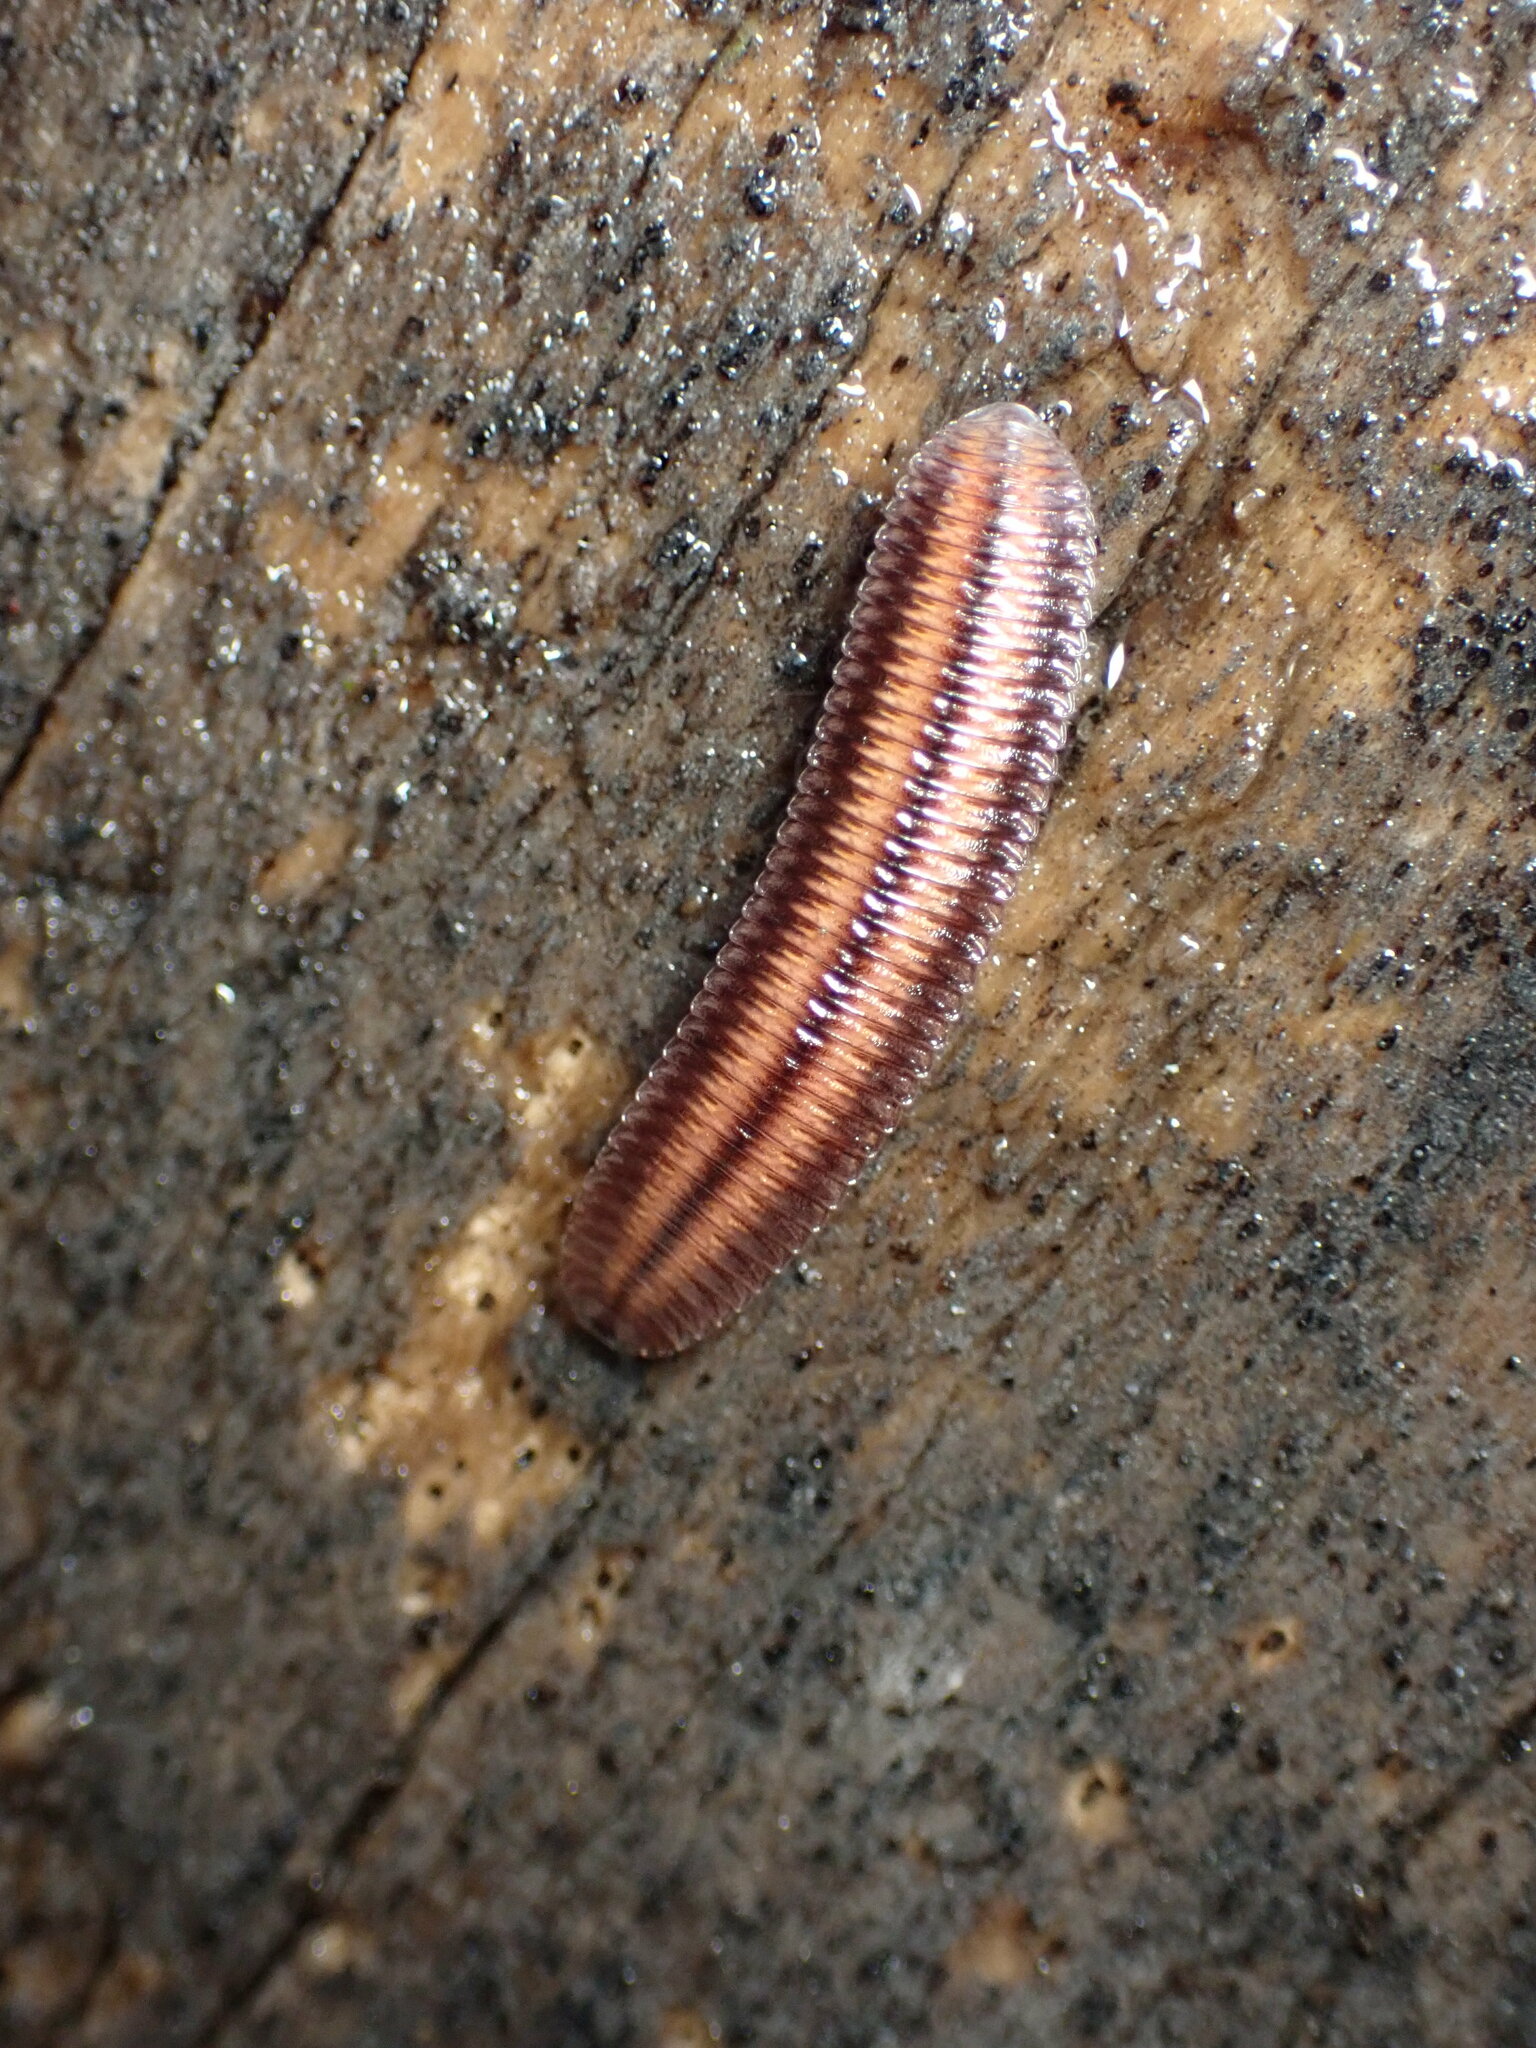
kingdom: Animalia
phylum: Arthropoda
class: Diplopoda
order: Polyzoniida
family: Hirudisomatidae
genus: Octoglena
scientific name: Octoglena bivirgatum
